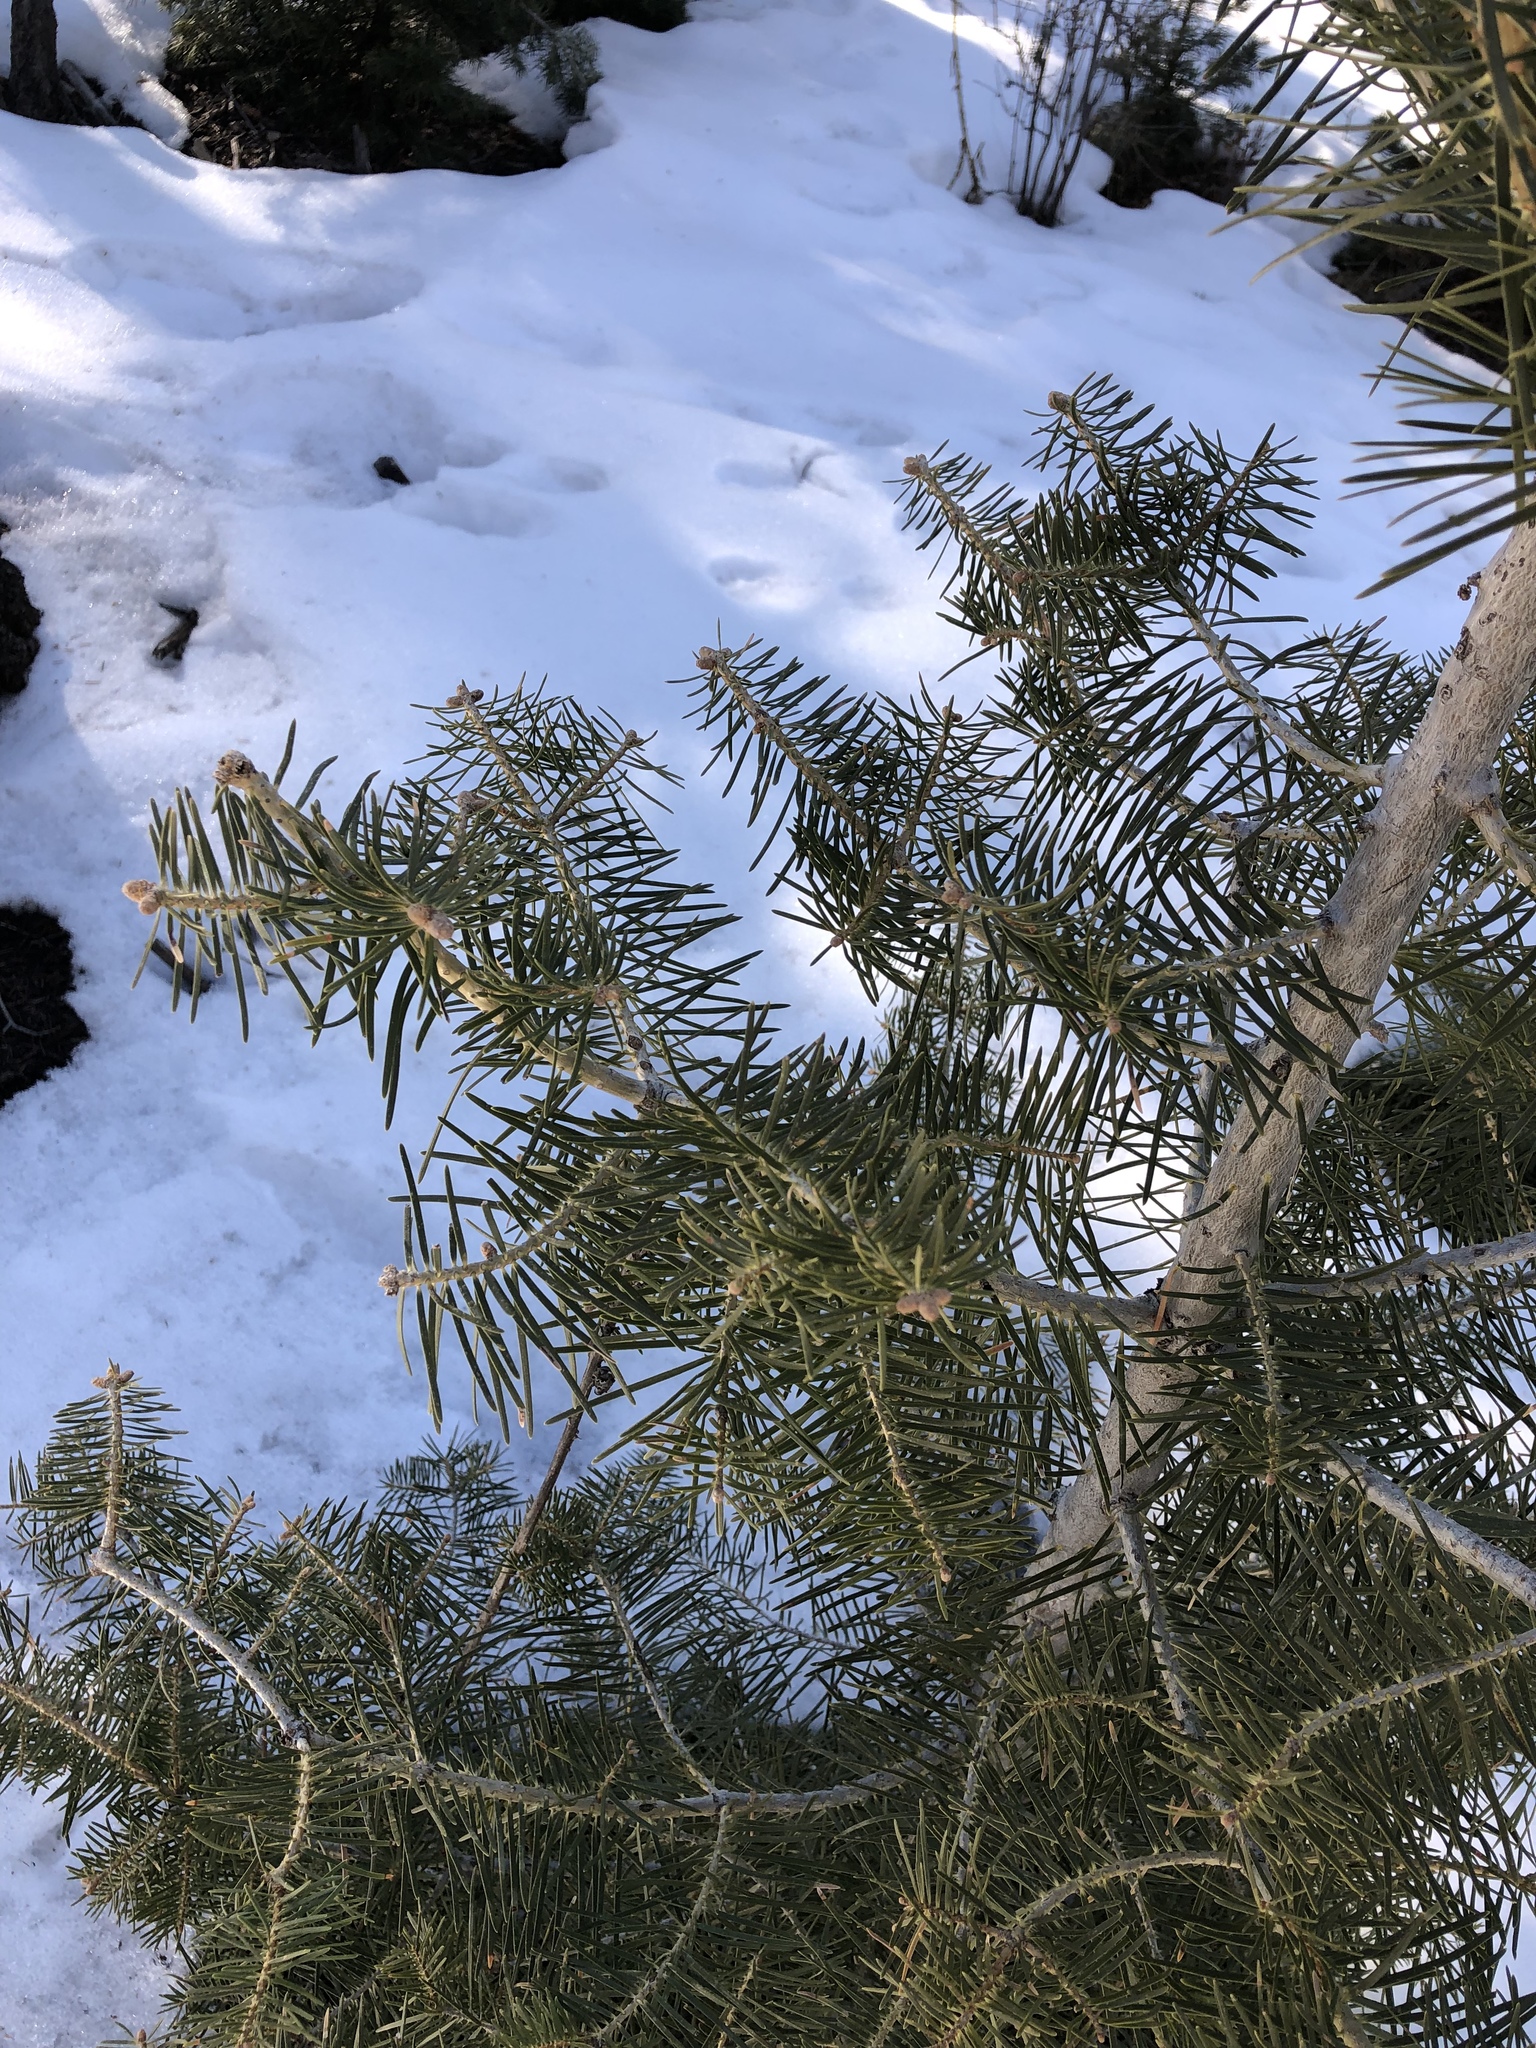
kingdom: Plantae
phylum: Tracheophyta
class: Pinopsida
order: Pinales
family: Pinaceae
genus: Abies
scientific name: Abies concolor
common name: Colorado fir
